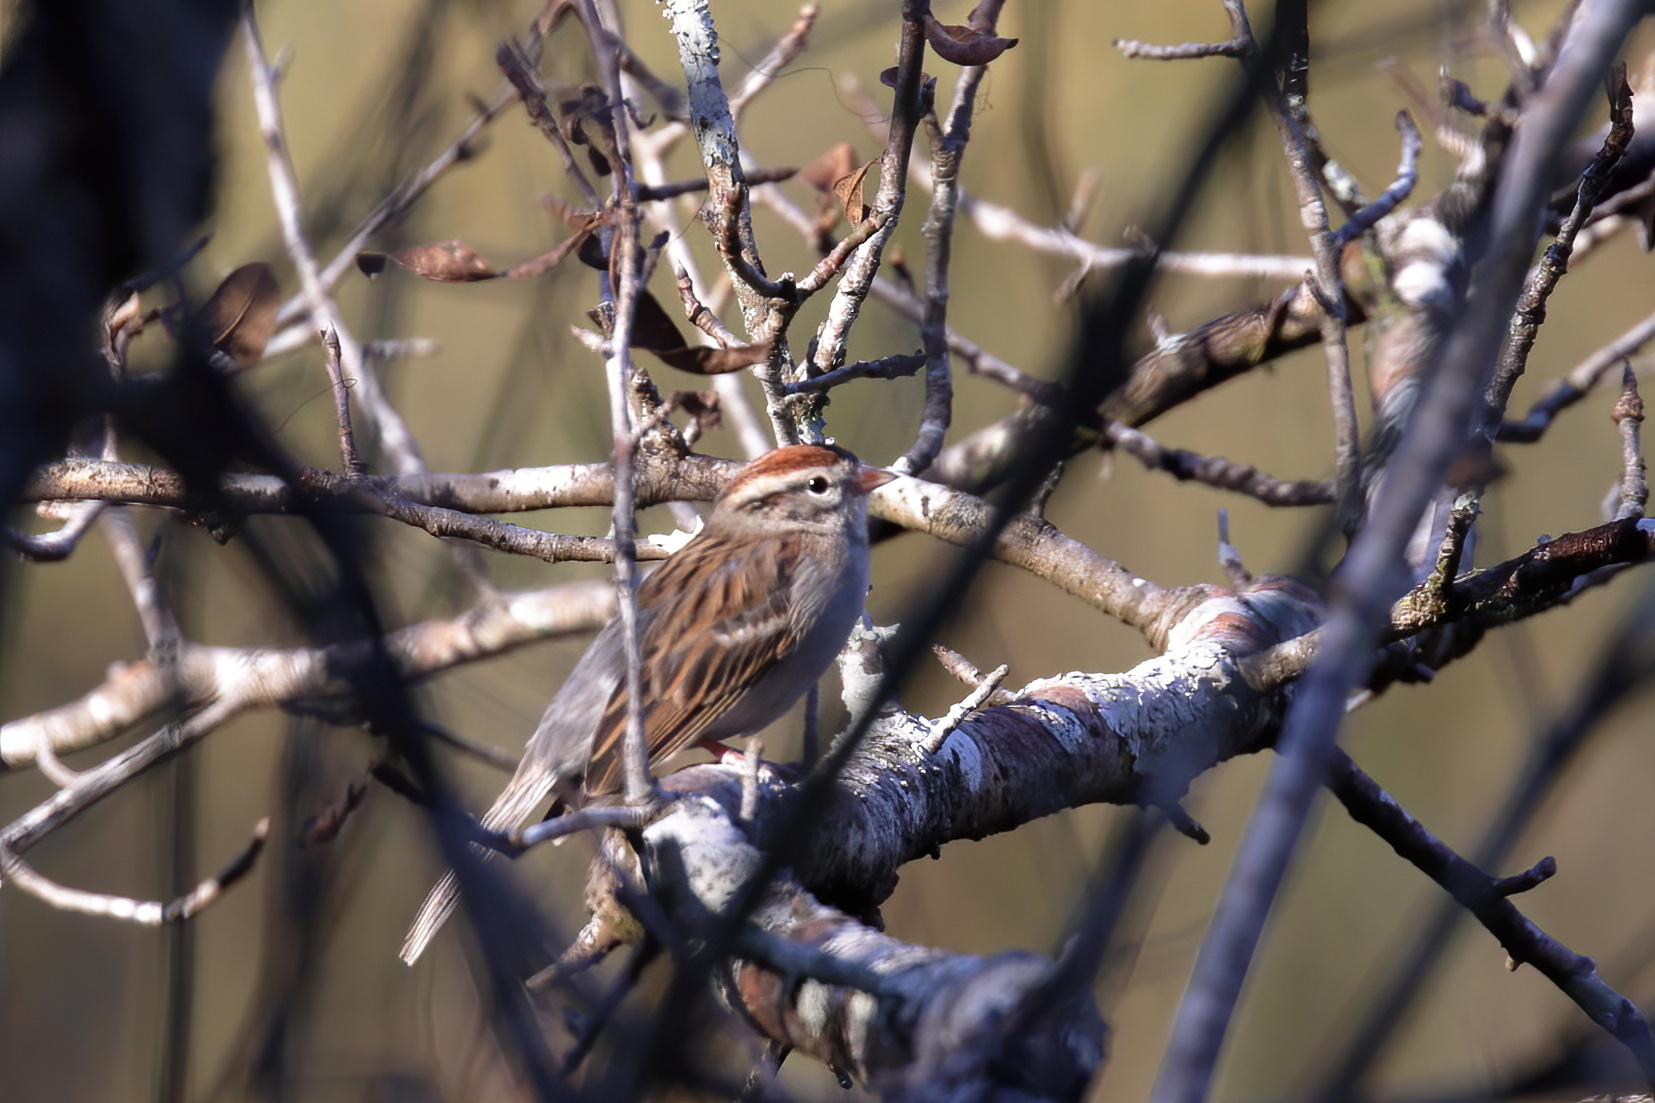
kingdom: Animalia
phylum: Chordata
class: Aves
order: Passeriformes
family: Passerellidae
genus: Spizella
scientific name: Spizella passerina
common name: Chipping sparrow
